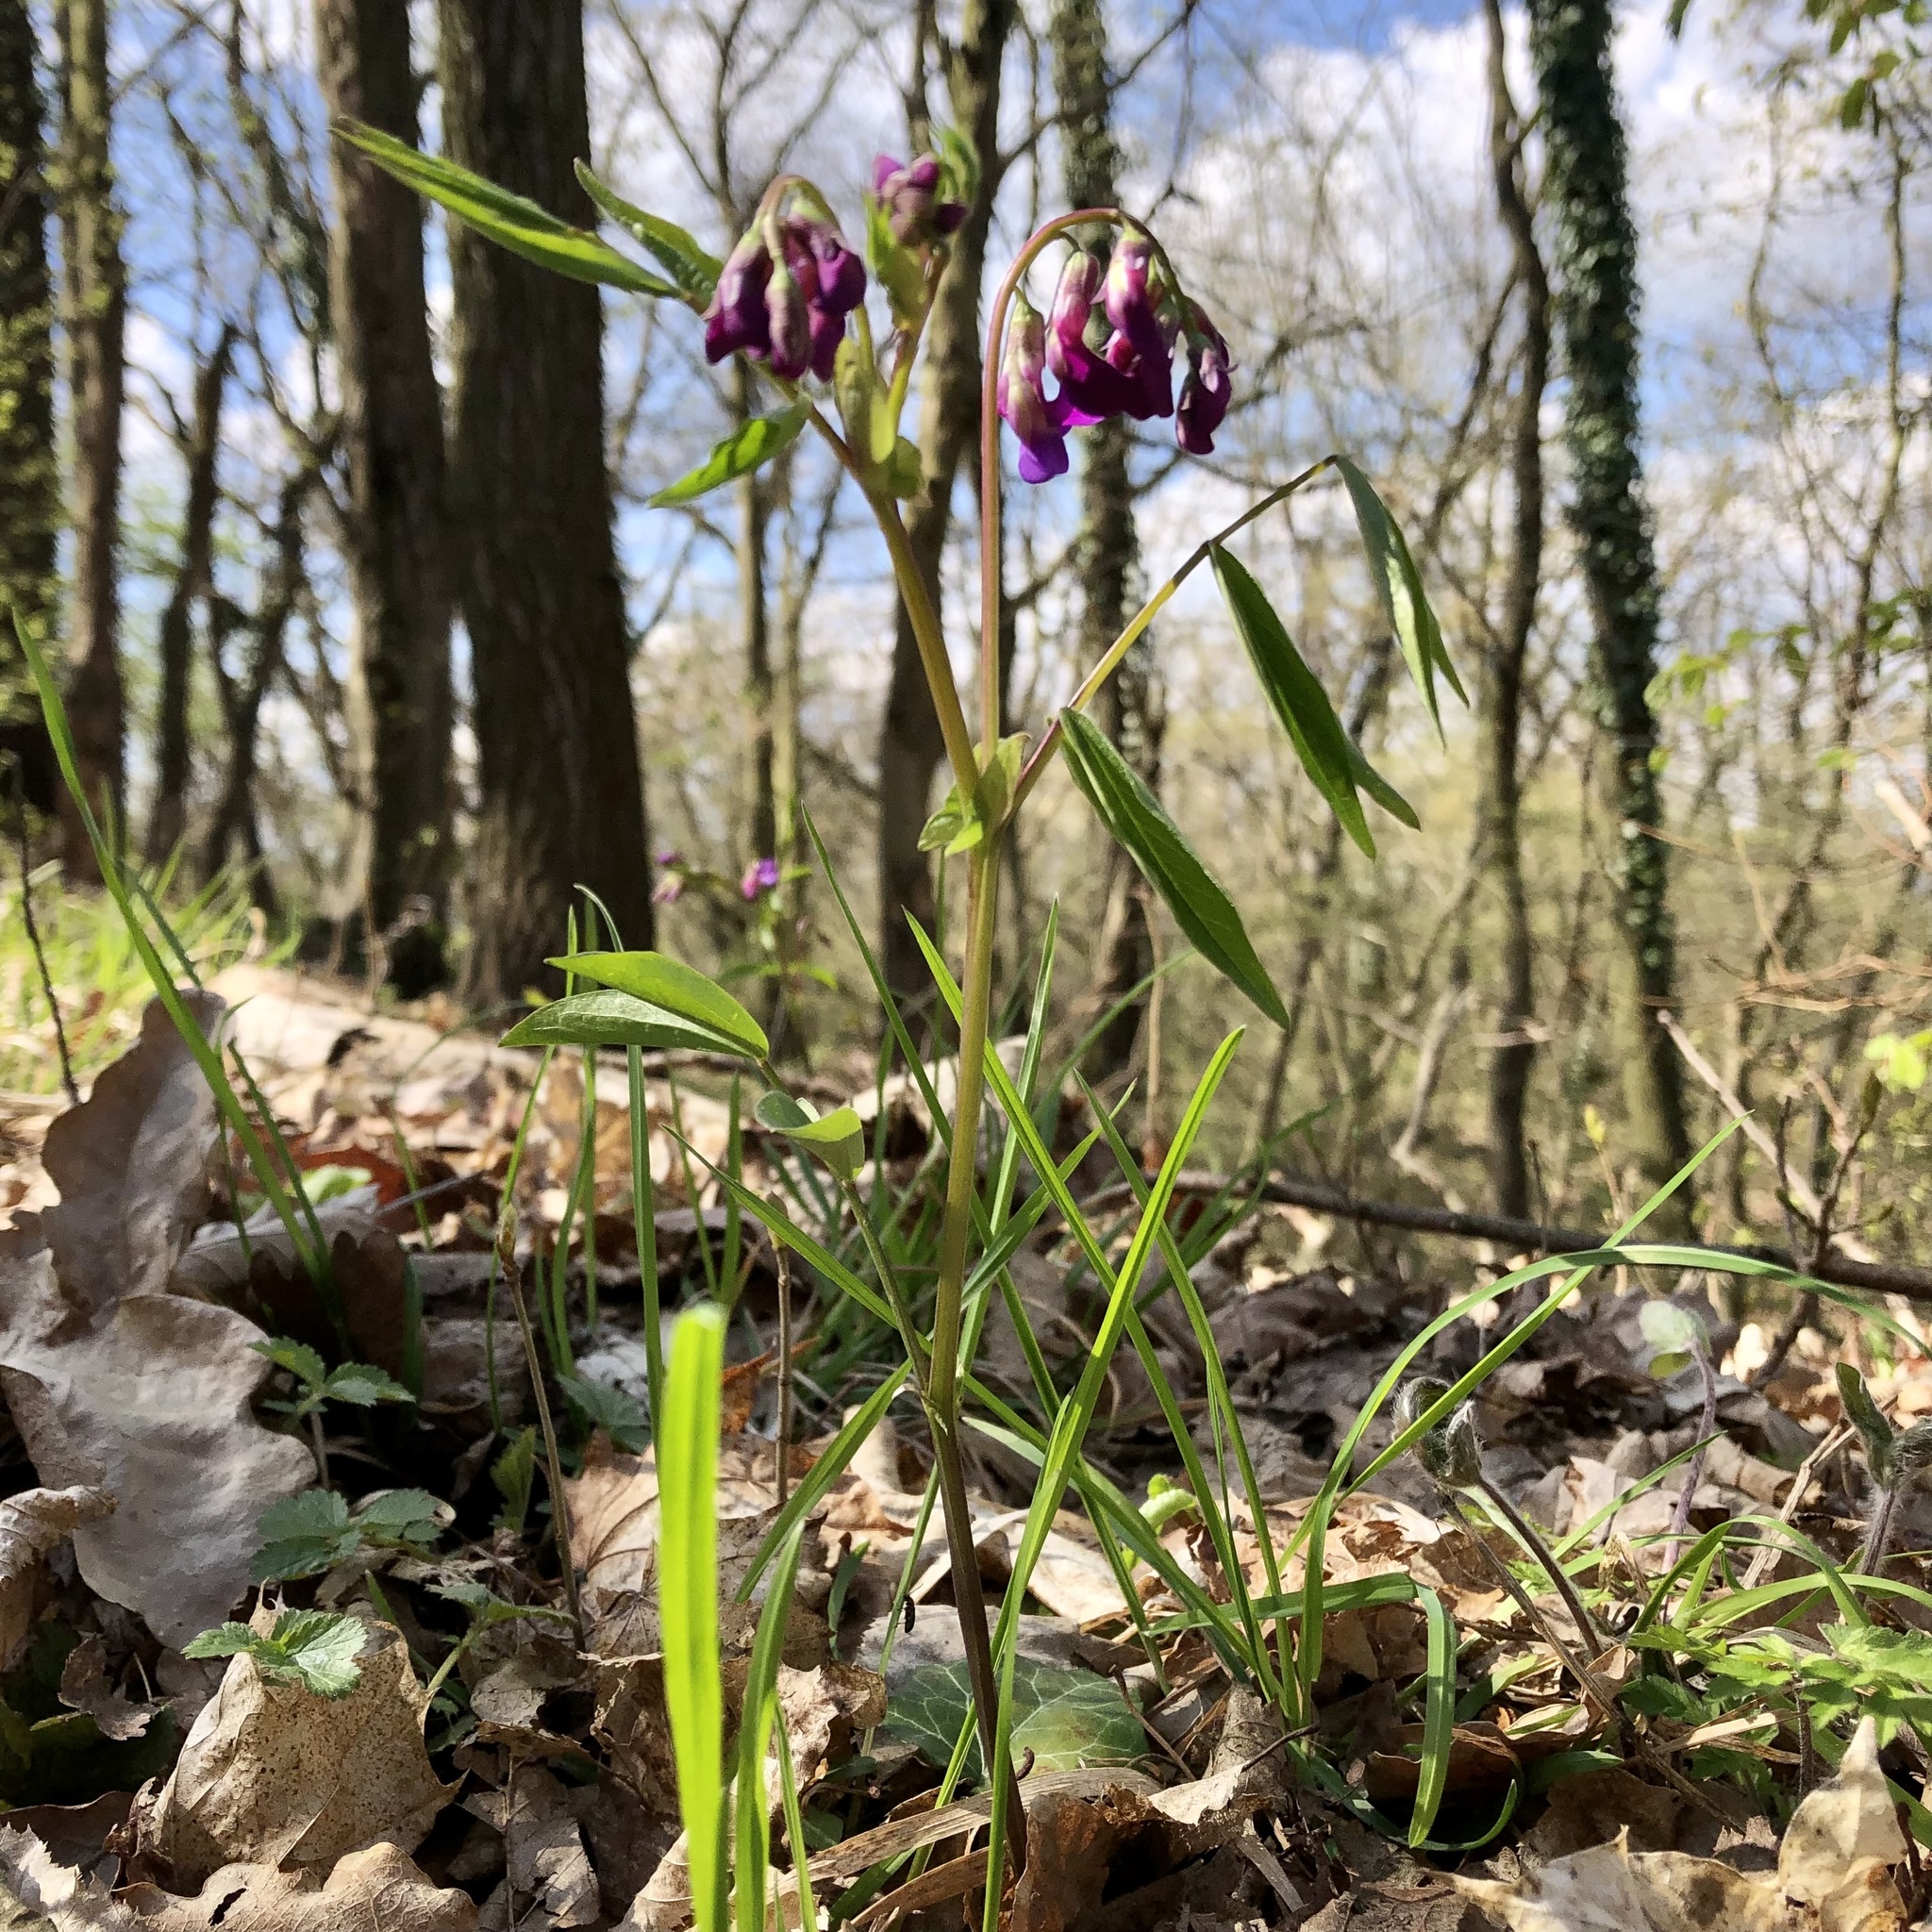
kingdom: Plantae
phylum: Tracheophyta
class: Magnoliopsida
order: Fabales
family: Fabaceae
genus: Lathyrus
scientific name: Lathyrus vernus
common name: Spring pea
